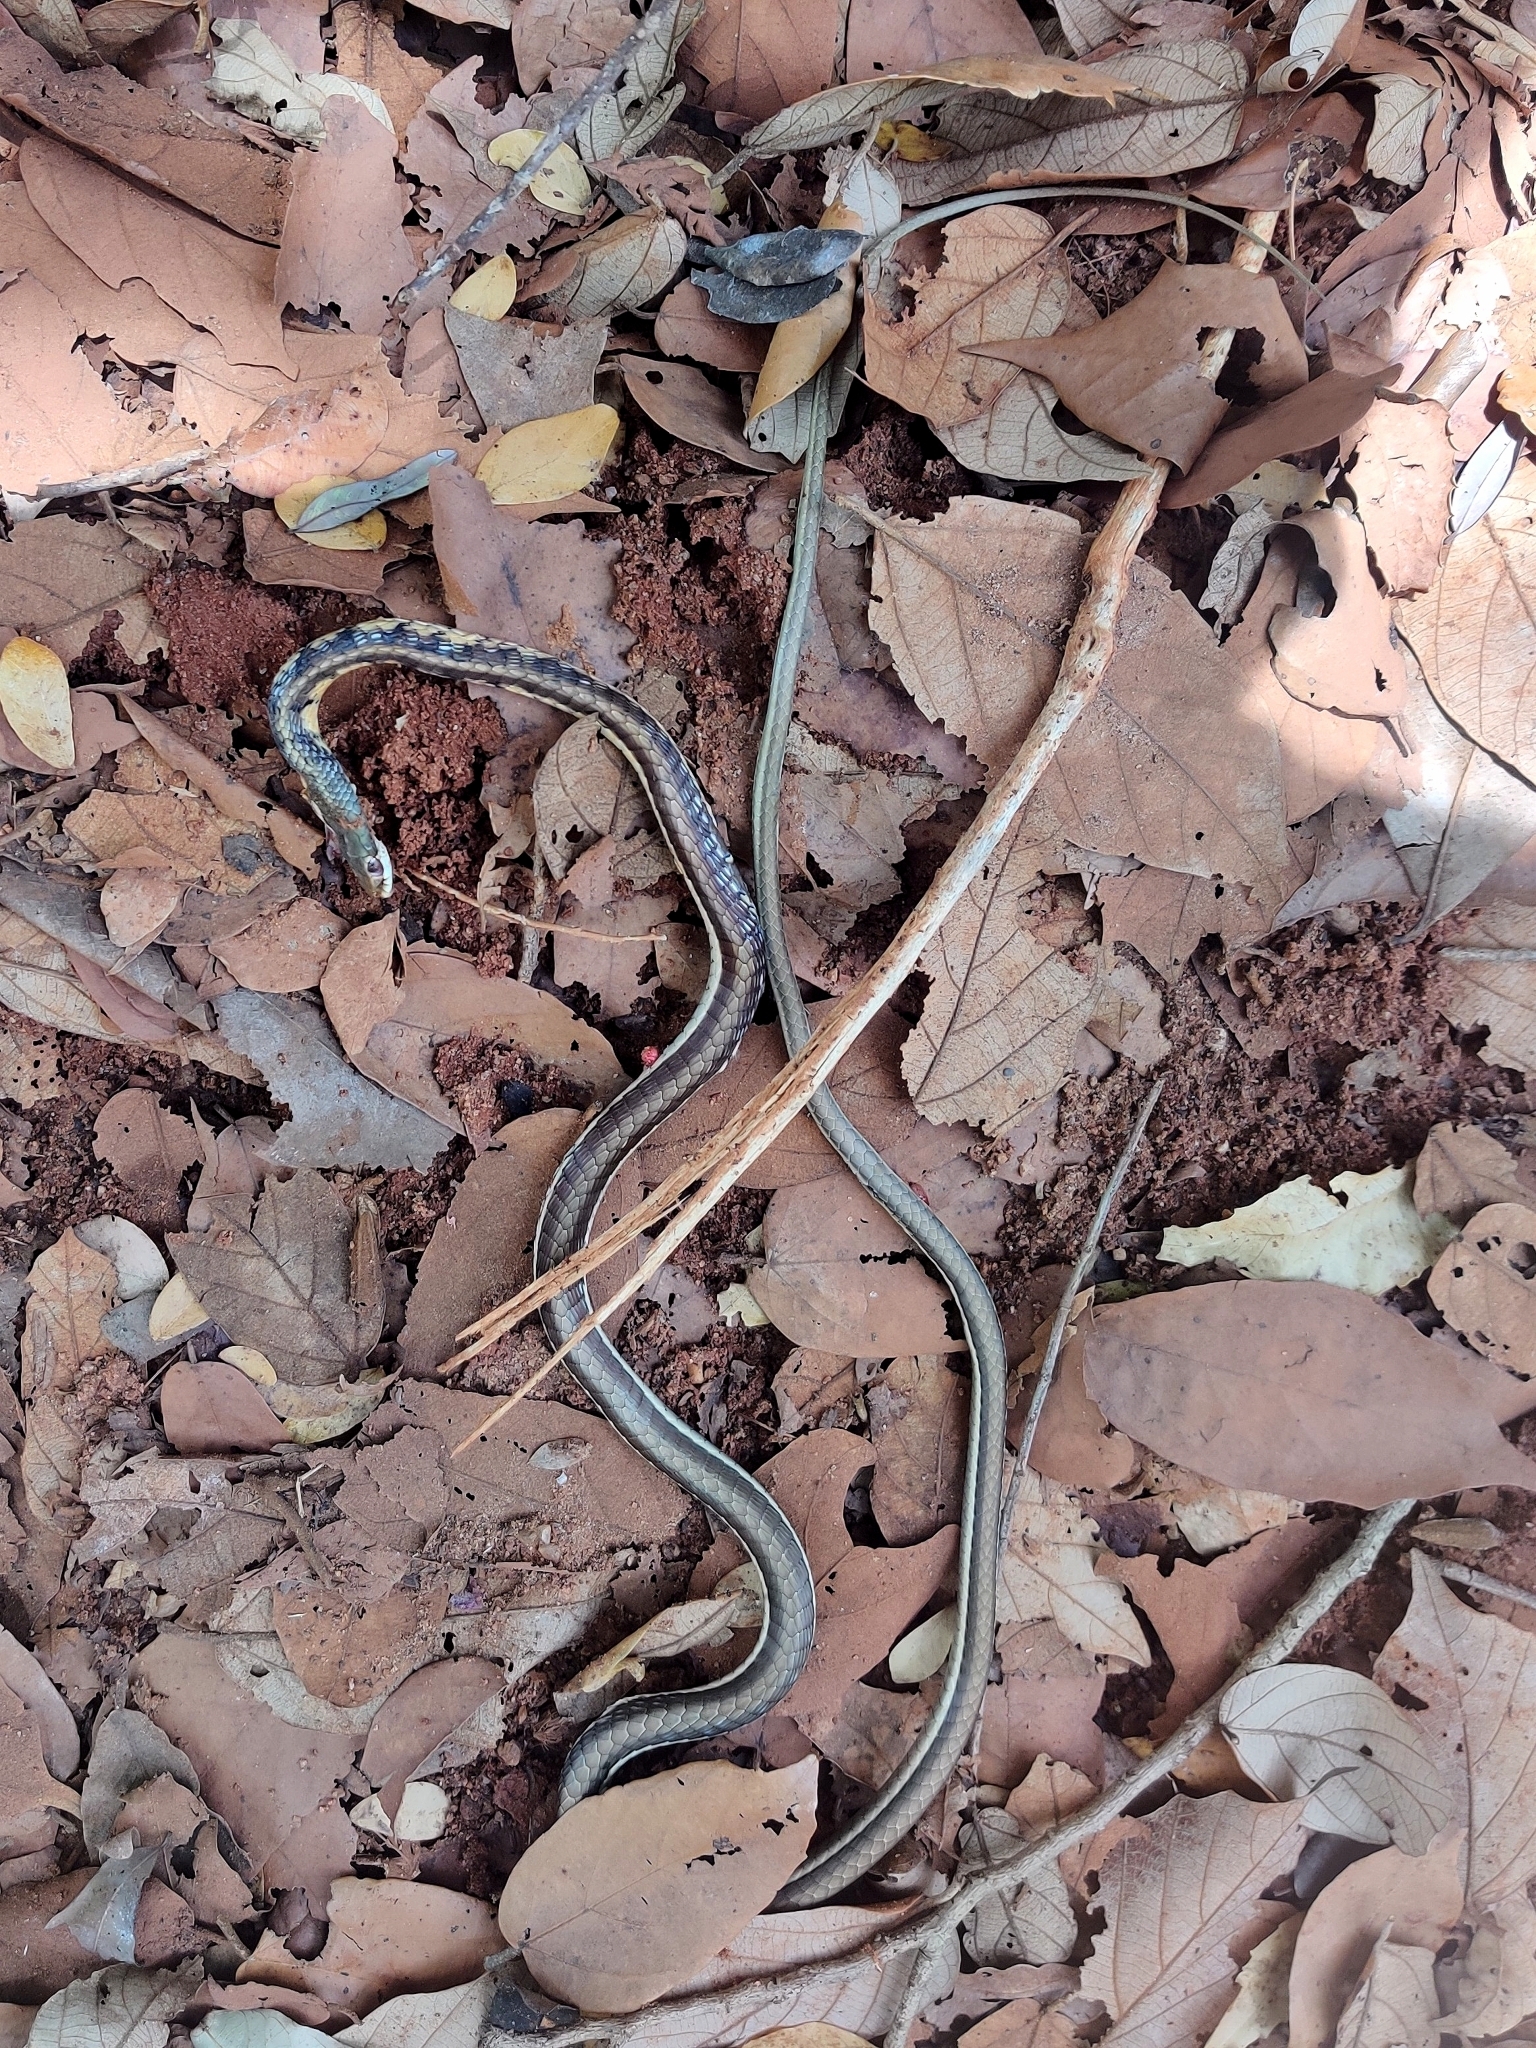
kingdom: Animalia
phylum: Chordata
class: Squamata
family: Colubridae
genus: Dendrelaphis
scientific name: Dendrelaphis tristis
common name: Daudin's bronzeback
